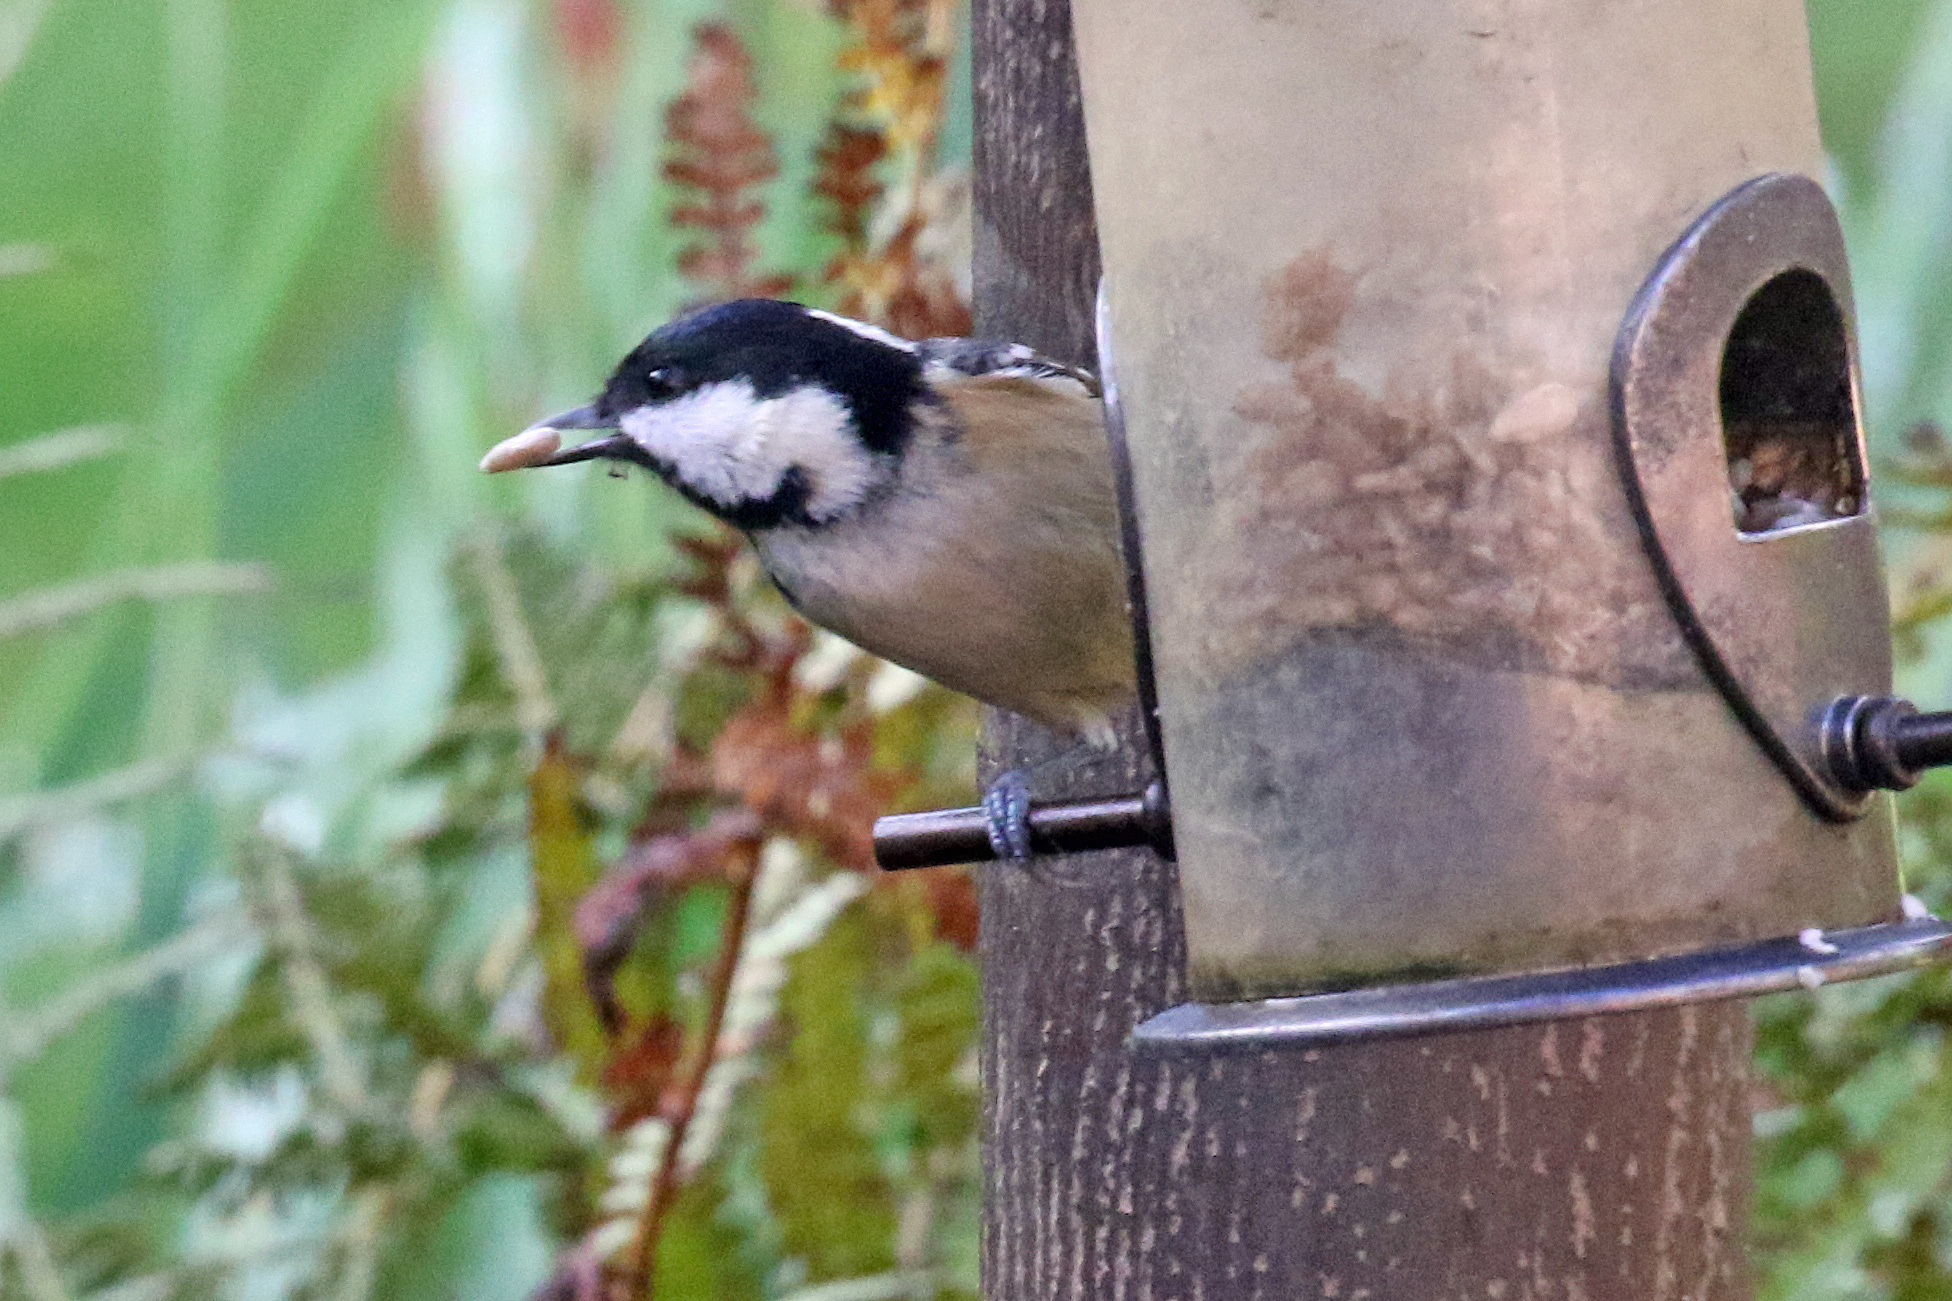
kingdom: Animalia
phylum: Chordata
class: Aves
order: Passeriformes
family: Paridae
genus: Periparus
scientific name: Periparus ater
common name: Coal tit
